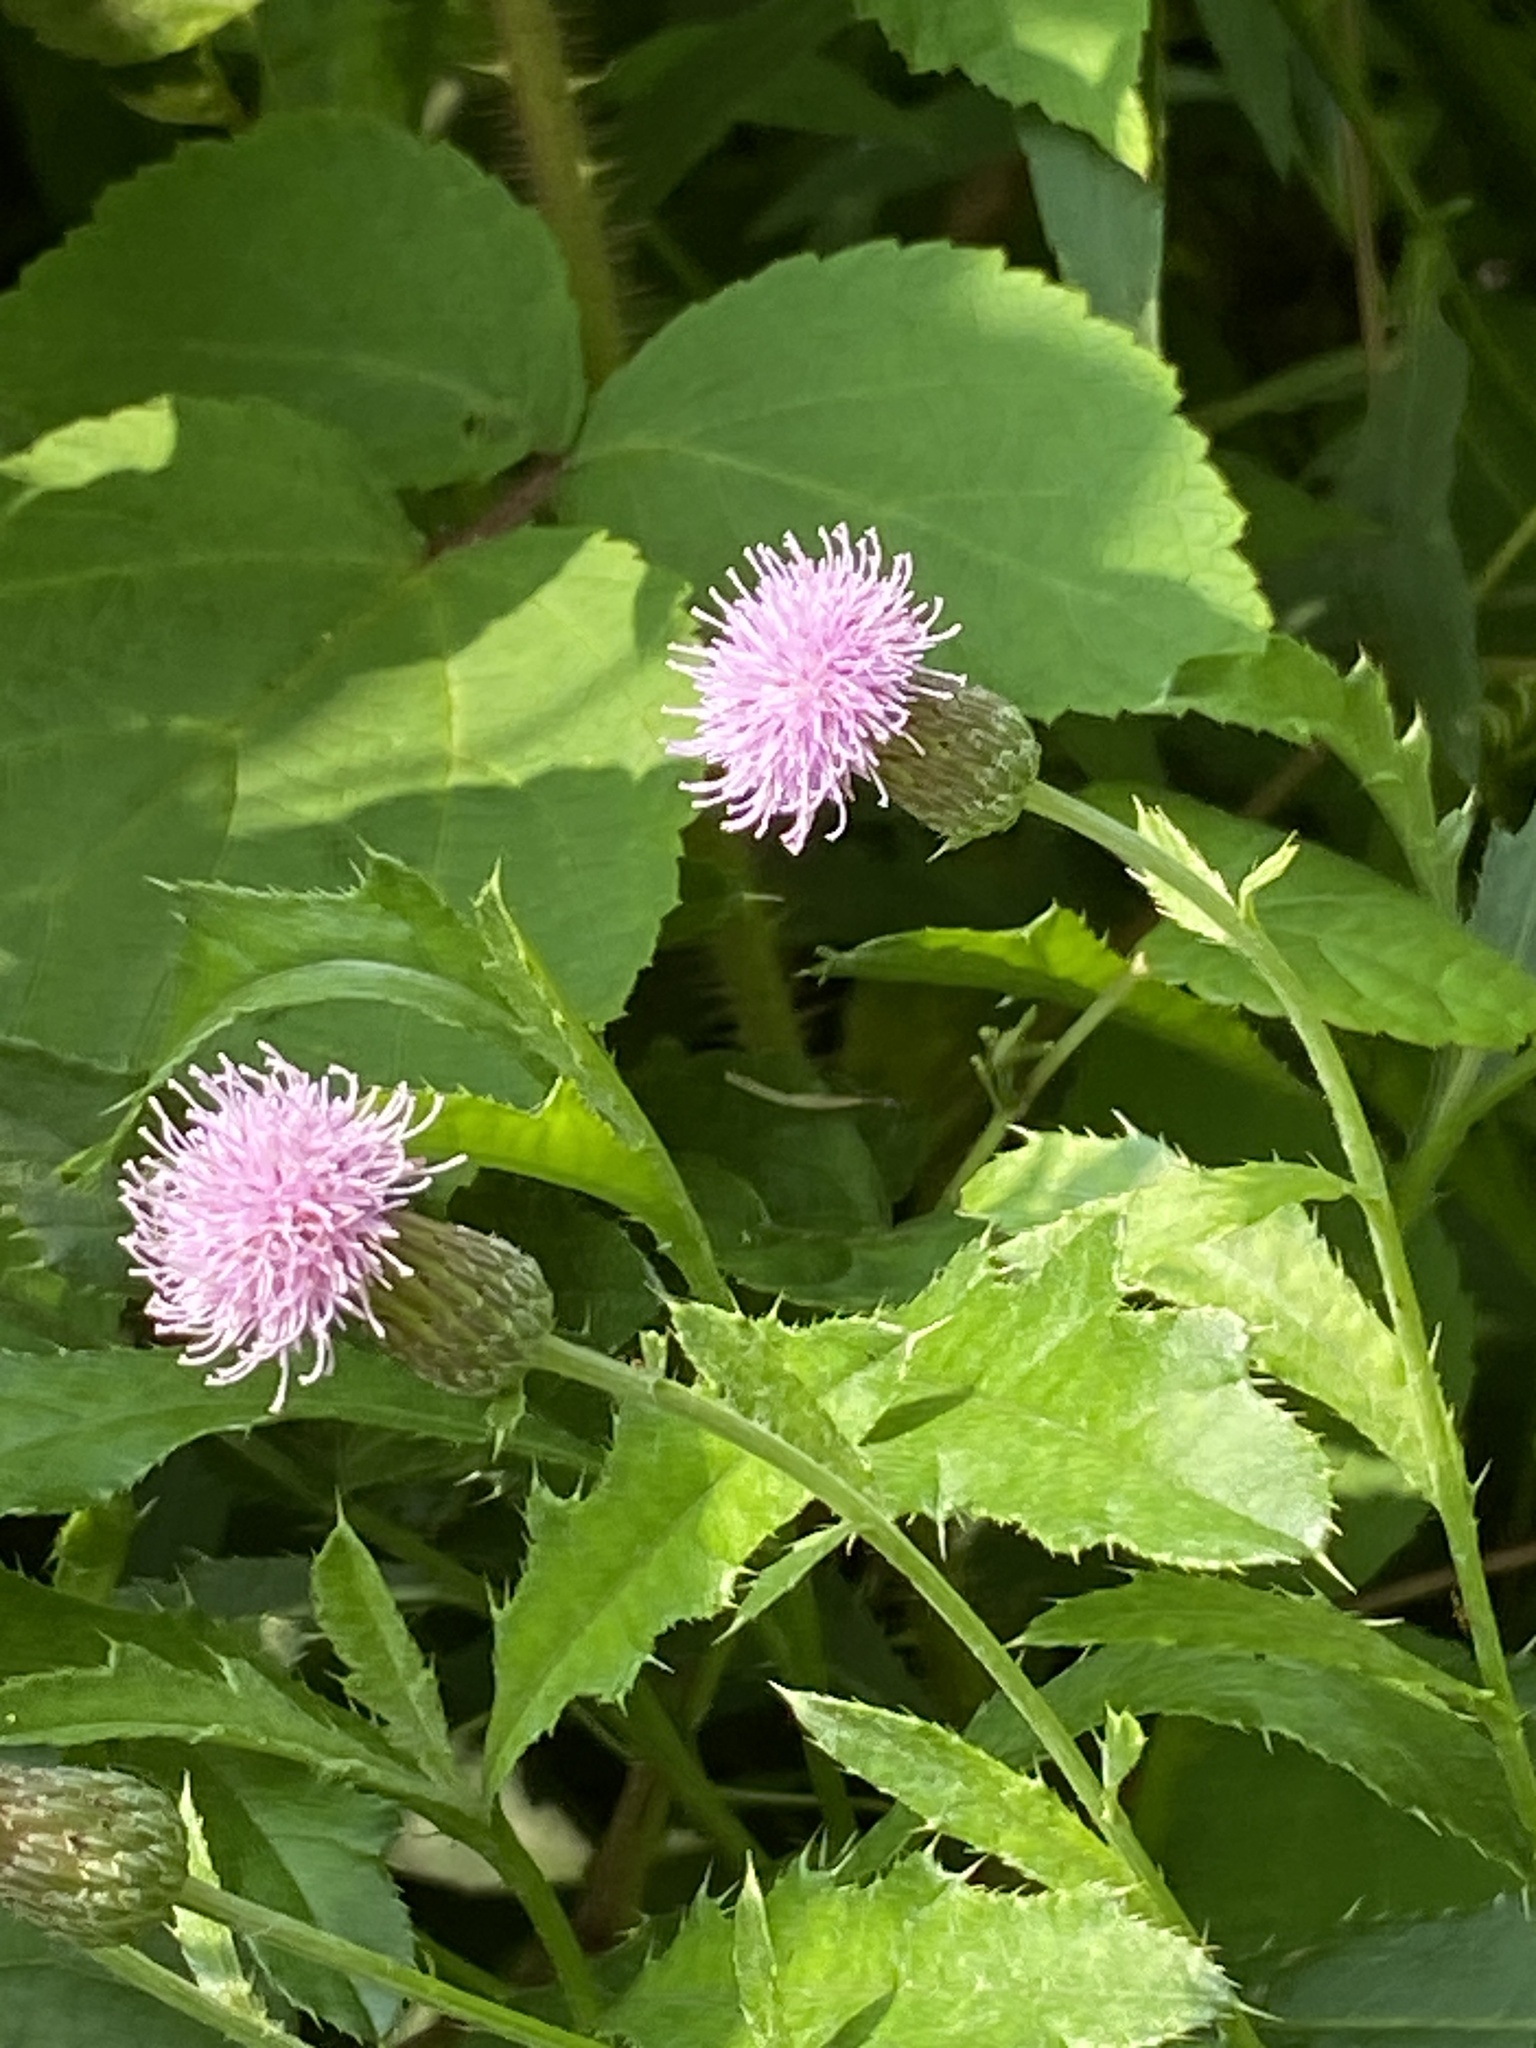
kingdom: Plantae
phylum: Tracheophyta
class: Magnoliopsida
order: Asterales
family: Asteraceae
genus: Cirsium
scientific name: Cirsium arvense
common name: Creeping thistle
